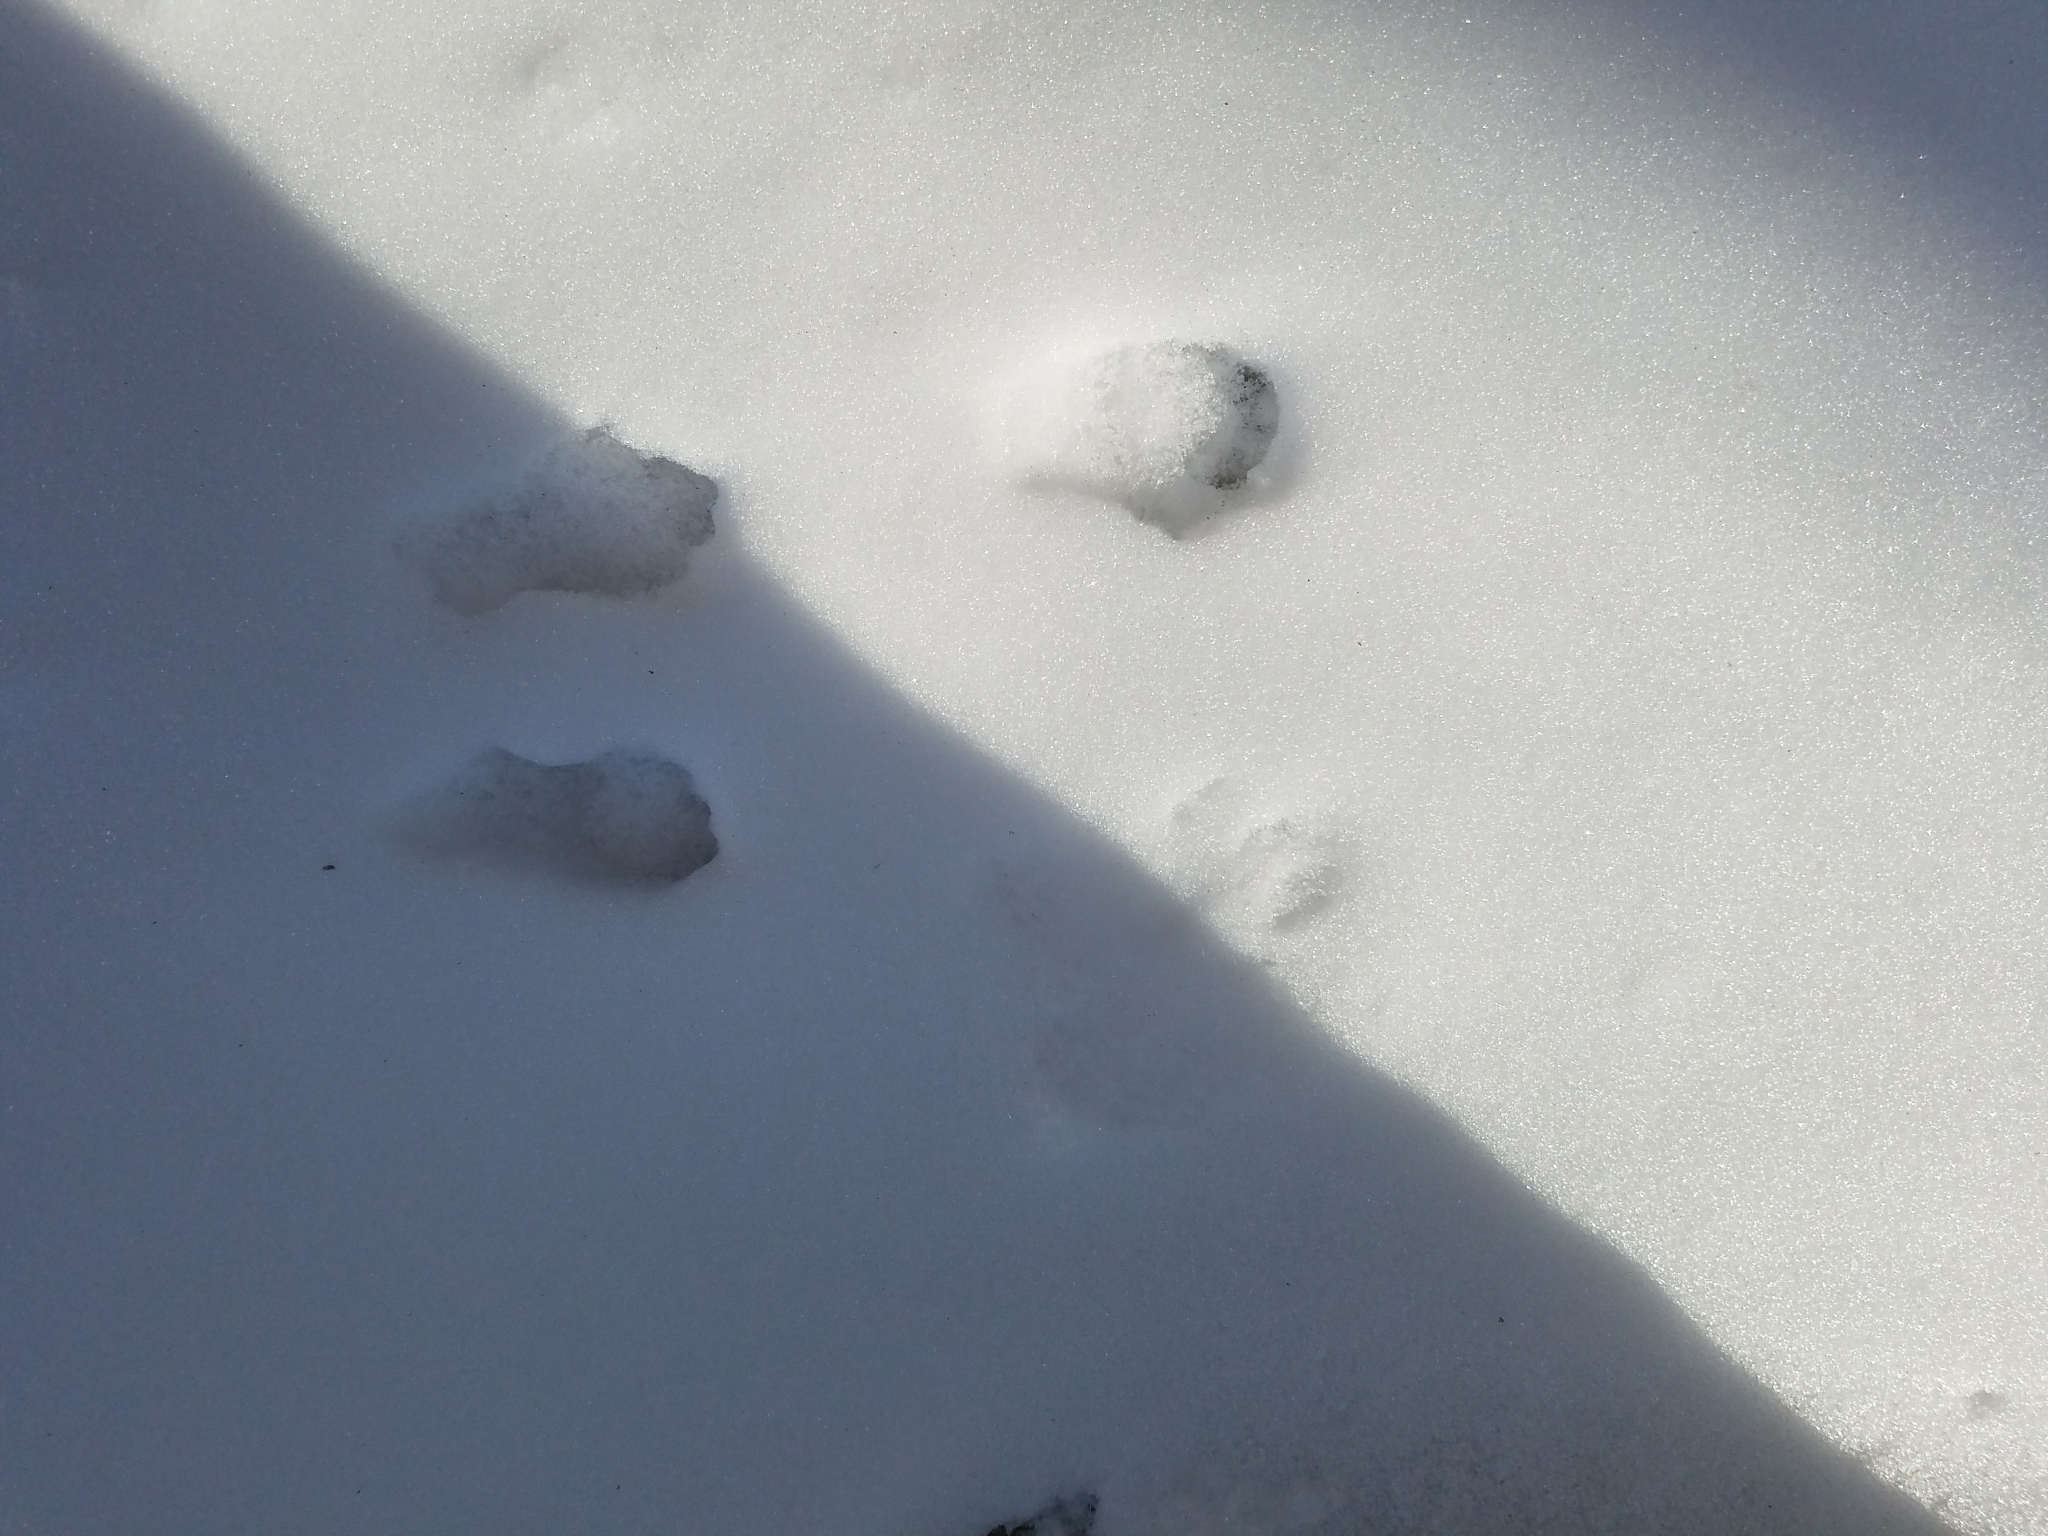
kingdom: Animalia
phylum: Chordata
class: Mammalia
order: Rodentia
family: Sciuridae
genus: Sciurus
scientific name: Sciurus carolinensis
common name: Eastern gray squirrel
